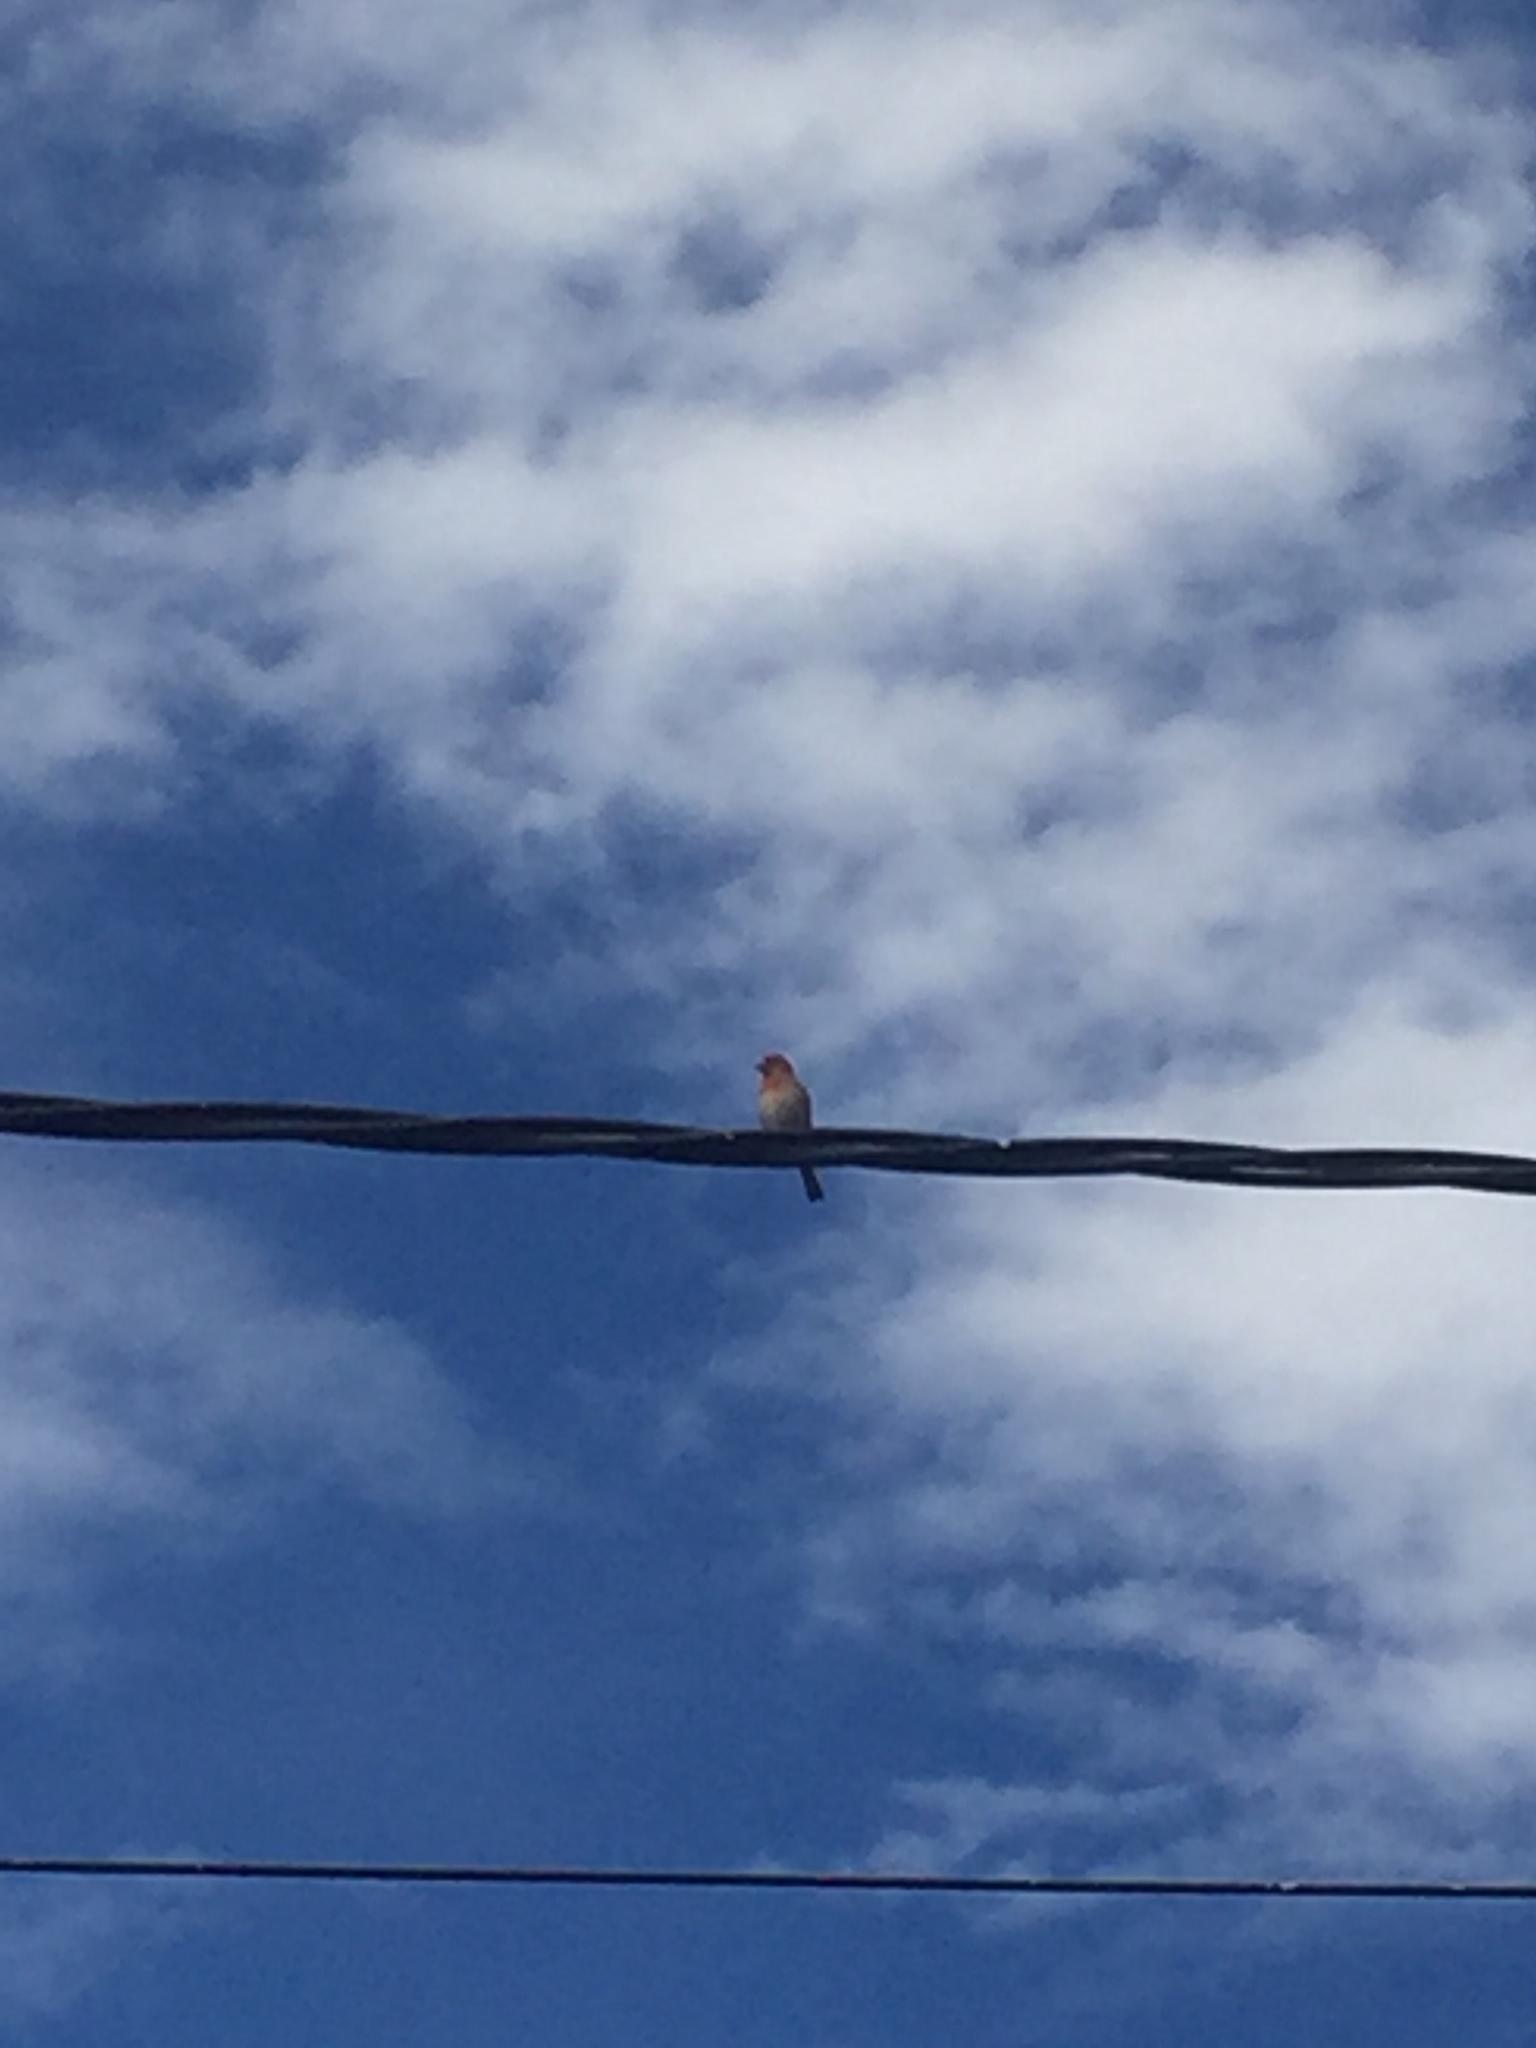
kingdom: Animalia
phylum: Chordata
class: Aves
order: Passeriformes
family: Fringillidae
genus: Haemorhous
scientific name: Haemorhous mexicanus
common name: House finch
